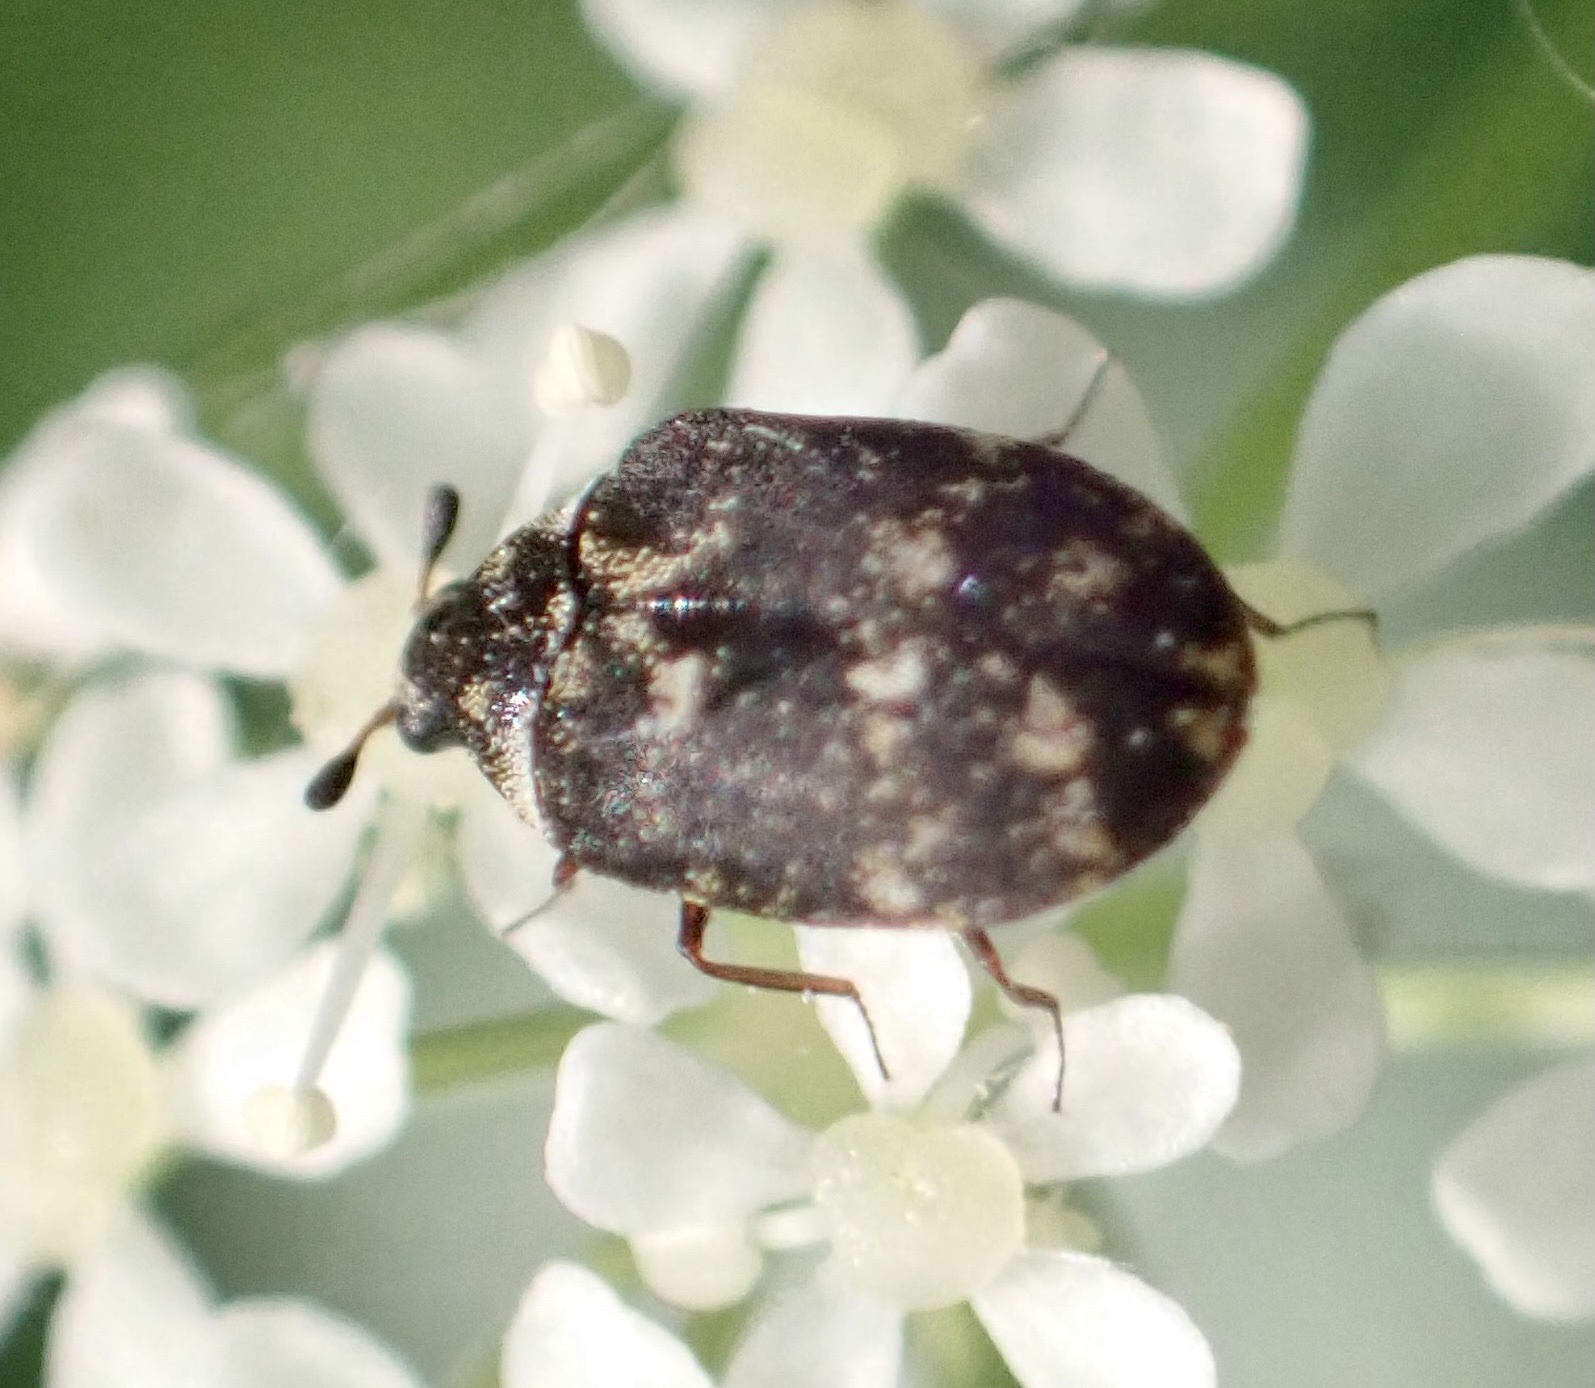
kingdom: Animalia
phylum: Arthropoda
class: Insecta
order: Coleoptera
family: Dermestidae
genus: Anthrenus
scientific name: Anthrenus museorum
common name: Museum beetle
